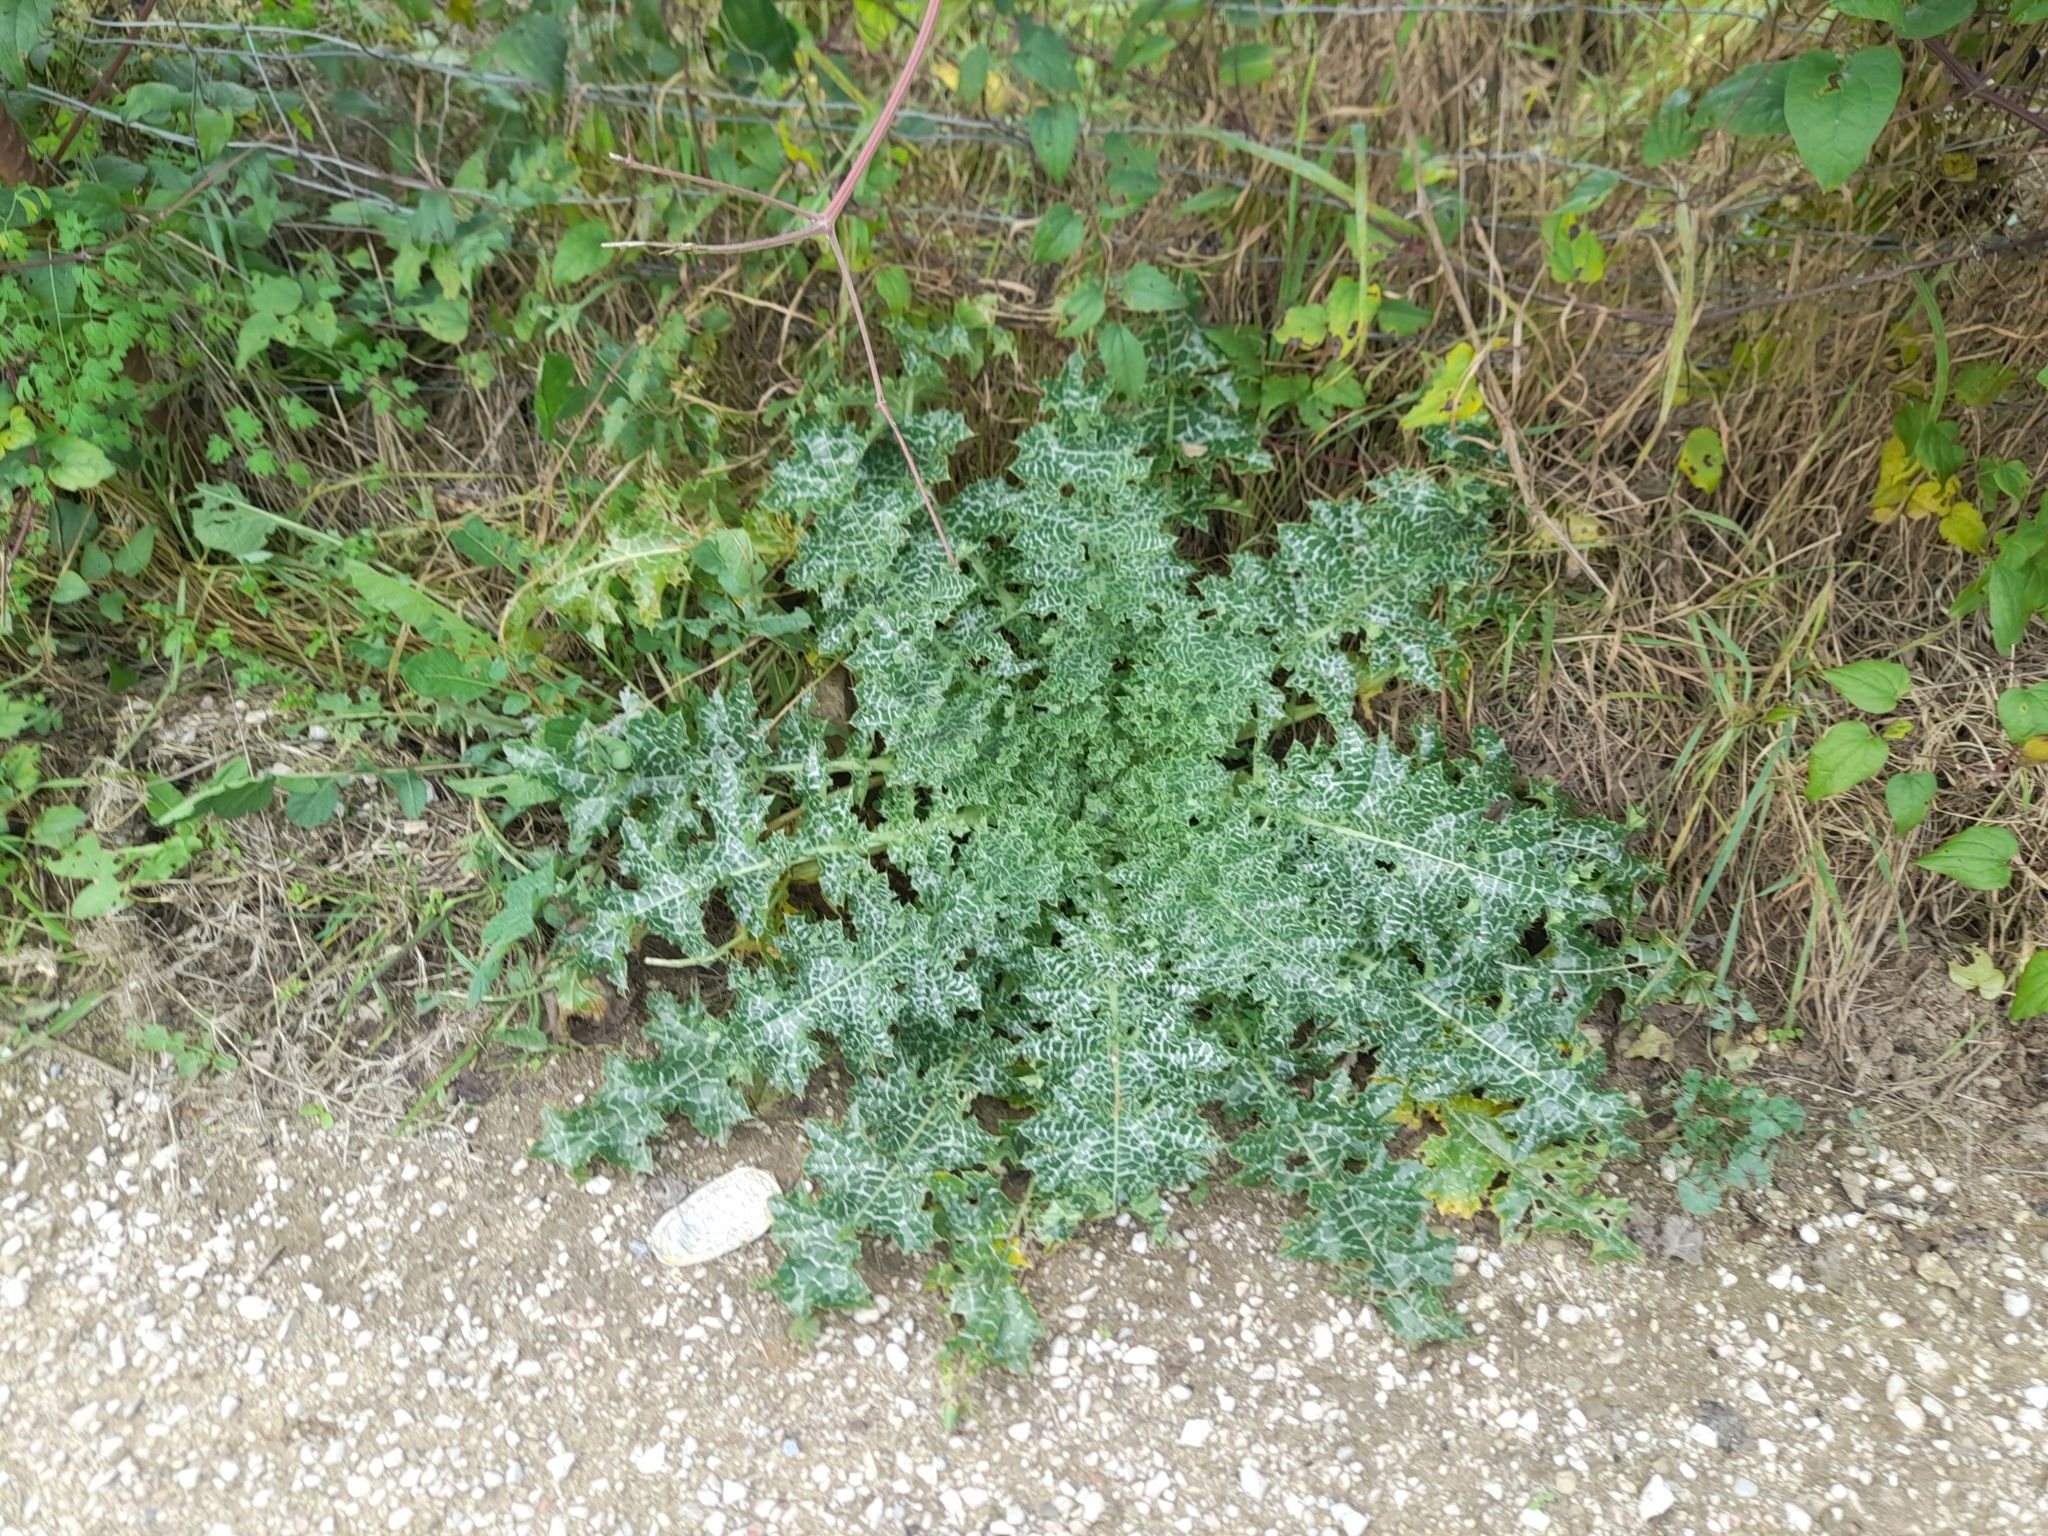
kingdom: Plantae
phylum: Tracheophyta
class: Magnoliopsida
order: Asterales
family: Asteraceae
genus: Silybum
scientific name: Silybum marianum
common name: Milk thistle
